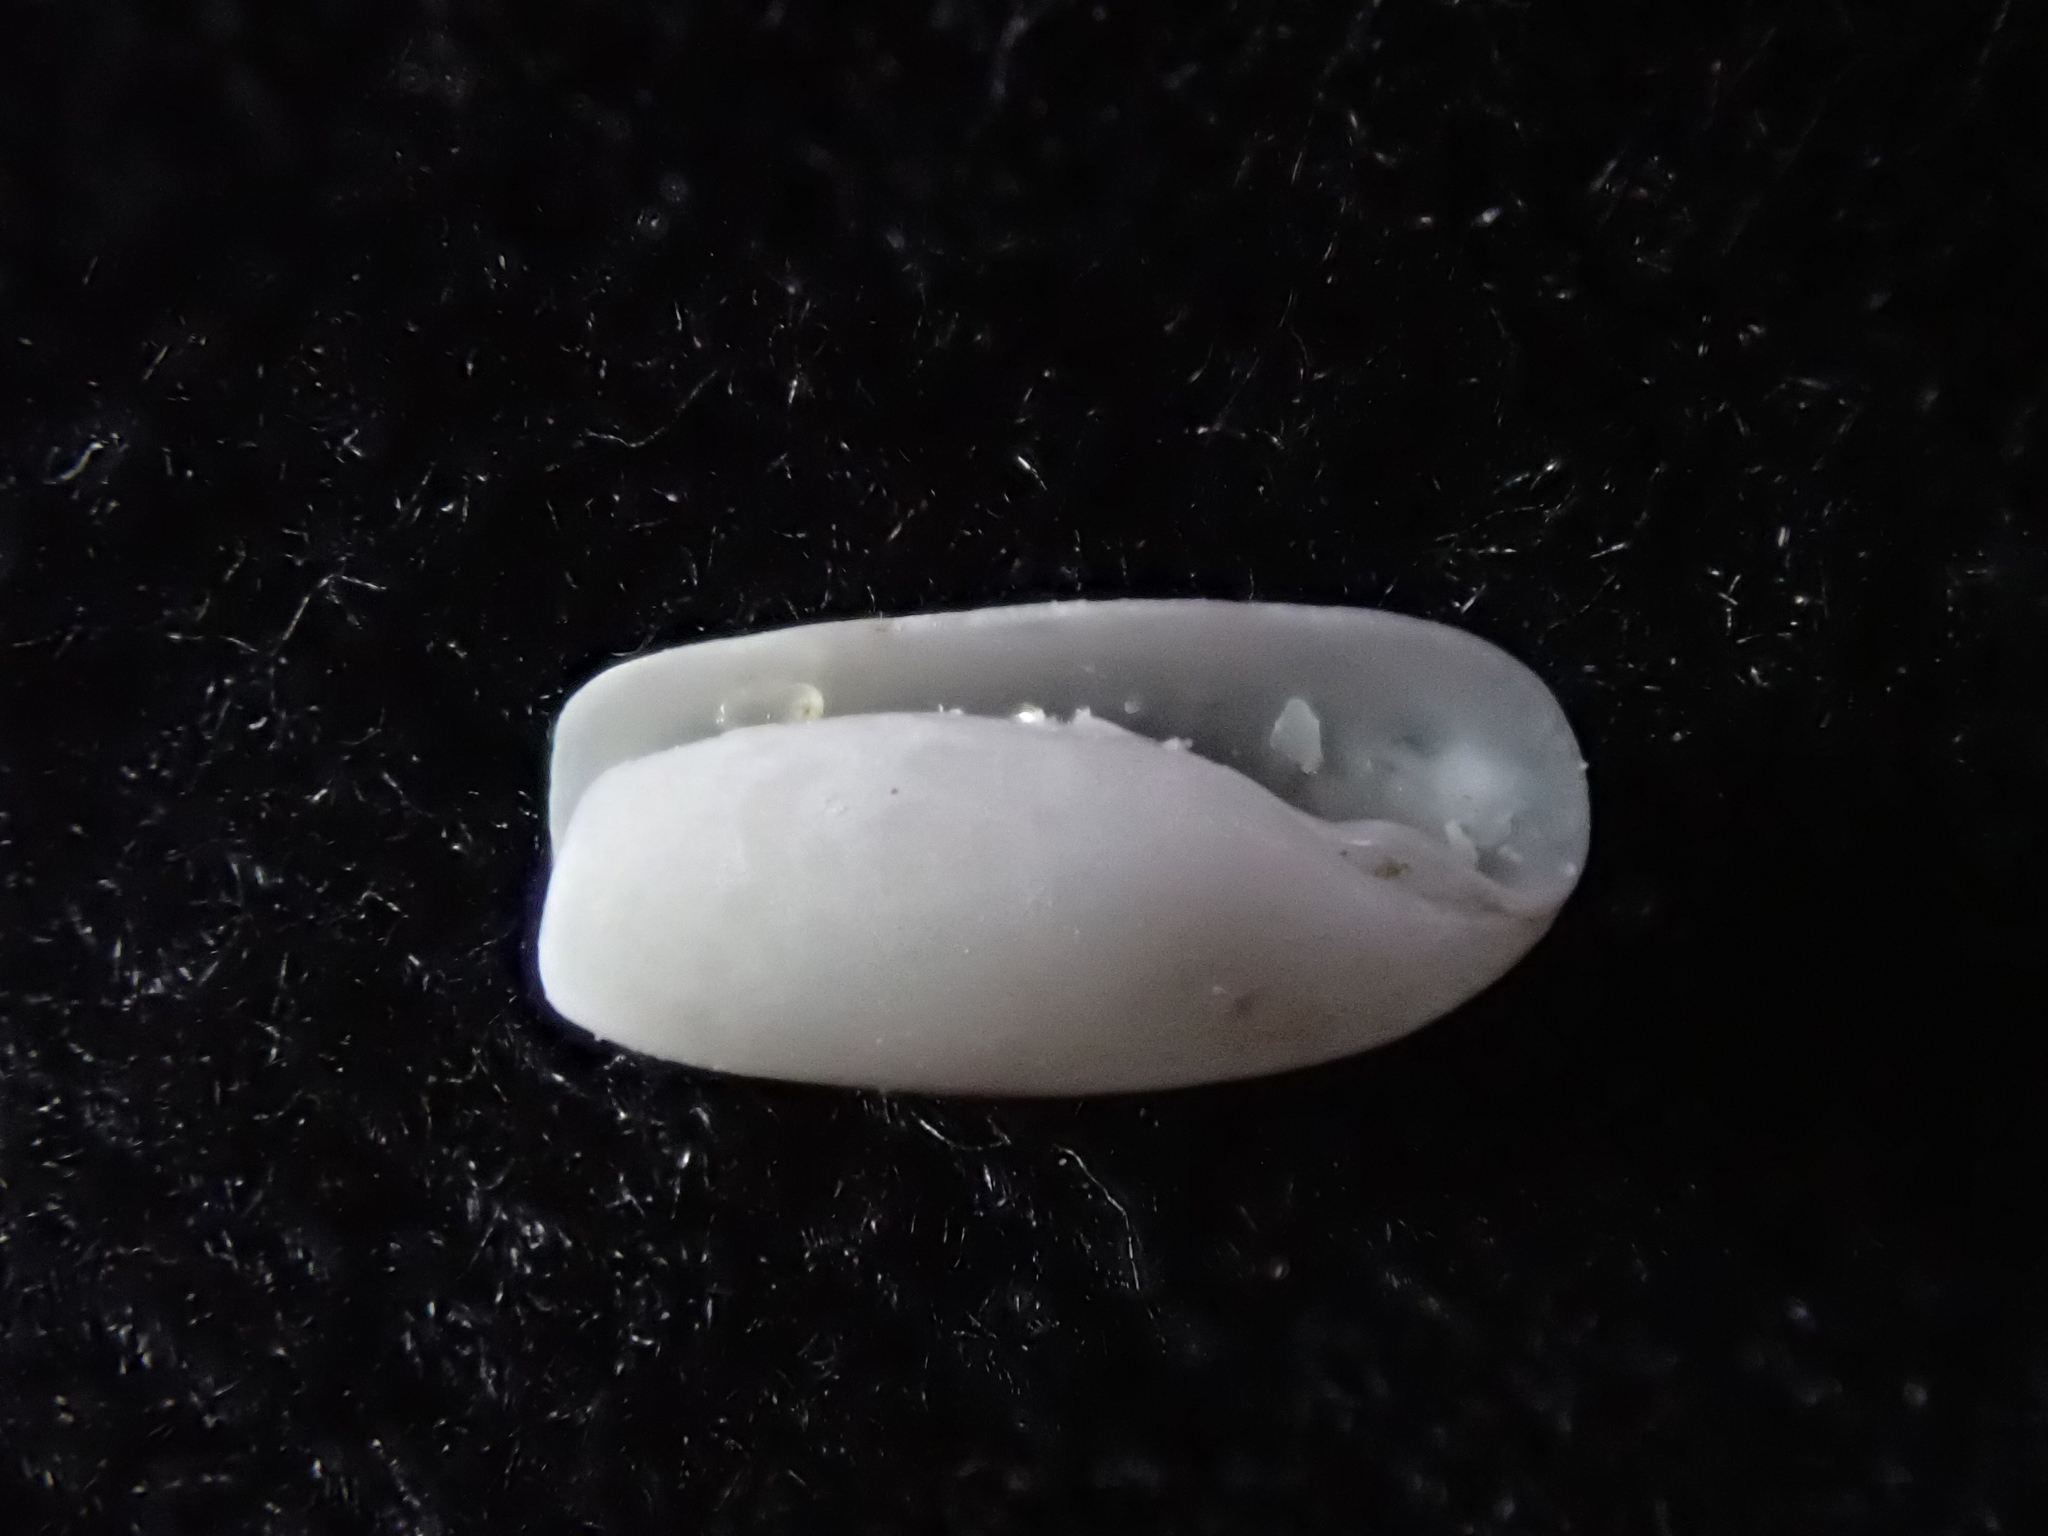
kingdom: Animalia
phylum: Mollusca
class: Gastropoda
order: Cephalaspidea
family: Cylichnidae
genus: Cylichna
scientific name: Cylichna thetidis
